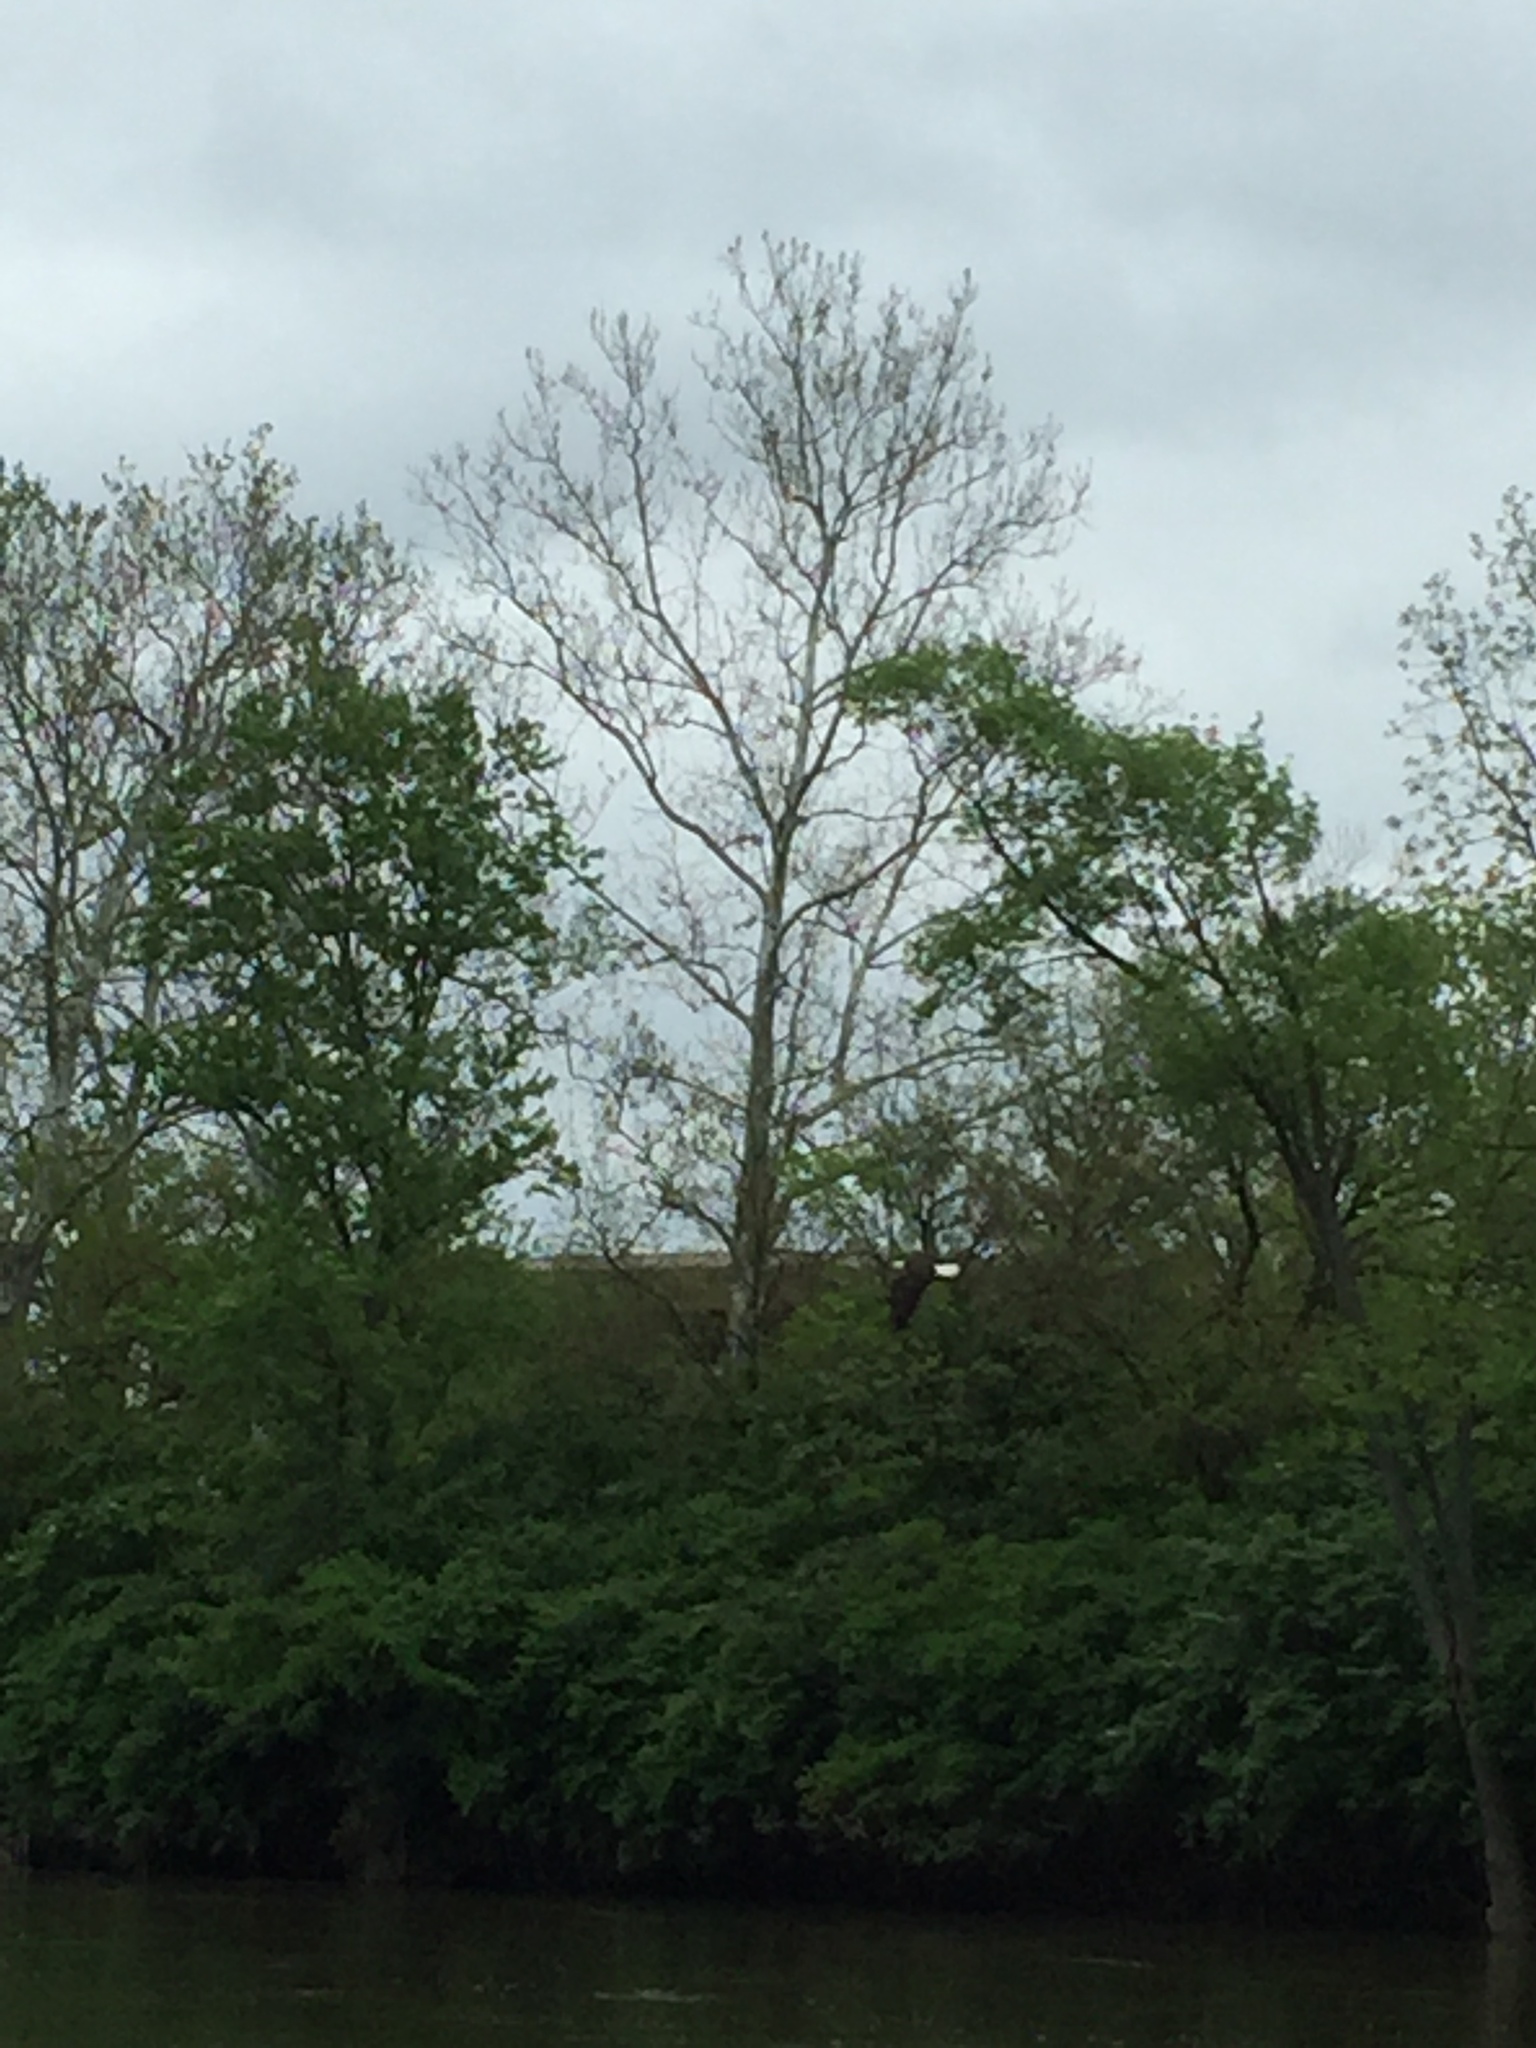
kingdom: Animalia
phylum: Chordata
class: Aves
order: Accipitriformes
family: Accipitridae
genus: Haliaeetus
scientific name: Haliaeetus leucocephalus
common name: Bald eagle
